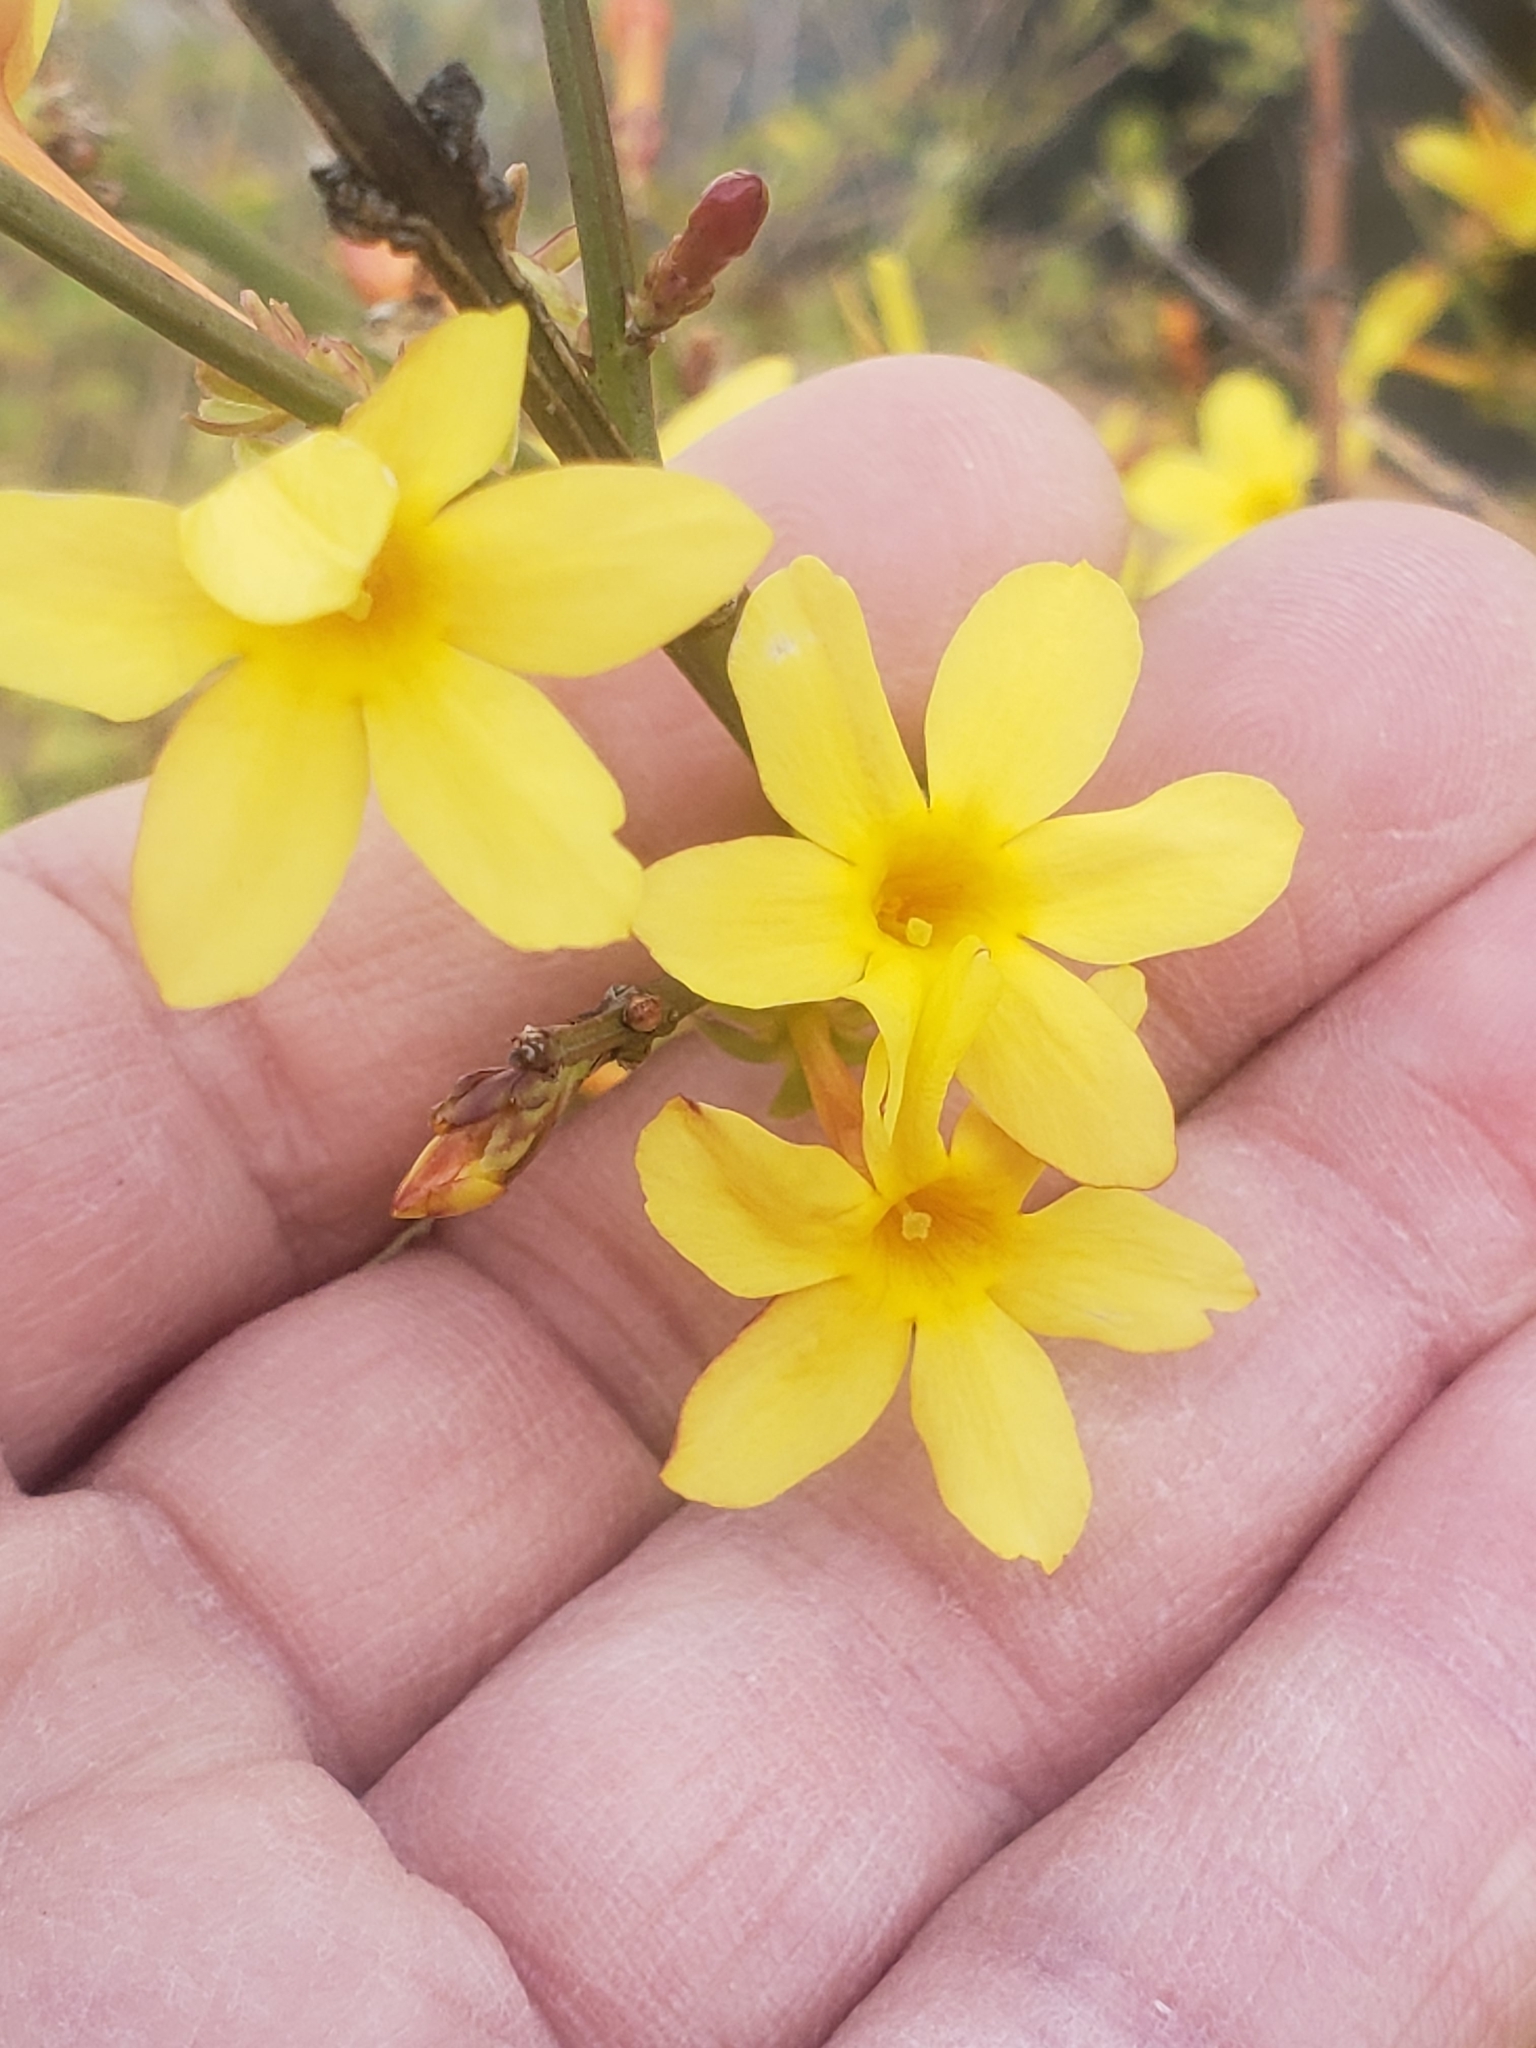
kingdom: Plantae
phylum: Tracheophyta
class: Magnoliopsida
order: Lamiales
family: Oleaceae
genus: Jasminum
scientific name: Jasminum nudiflorum
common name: Winter jasmine
